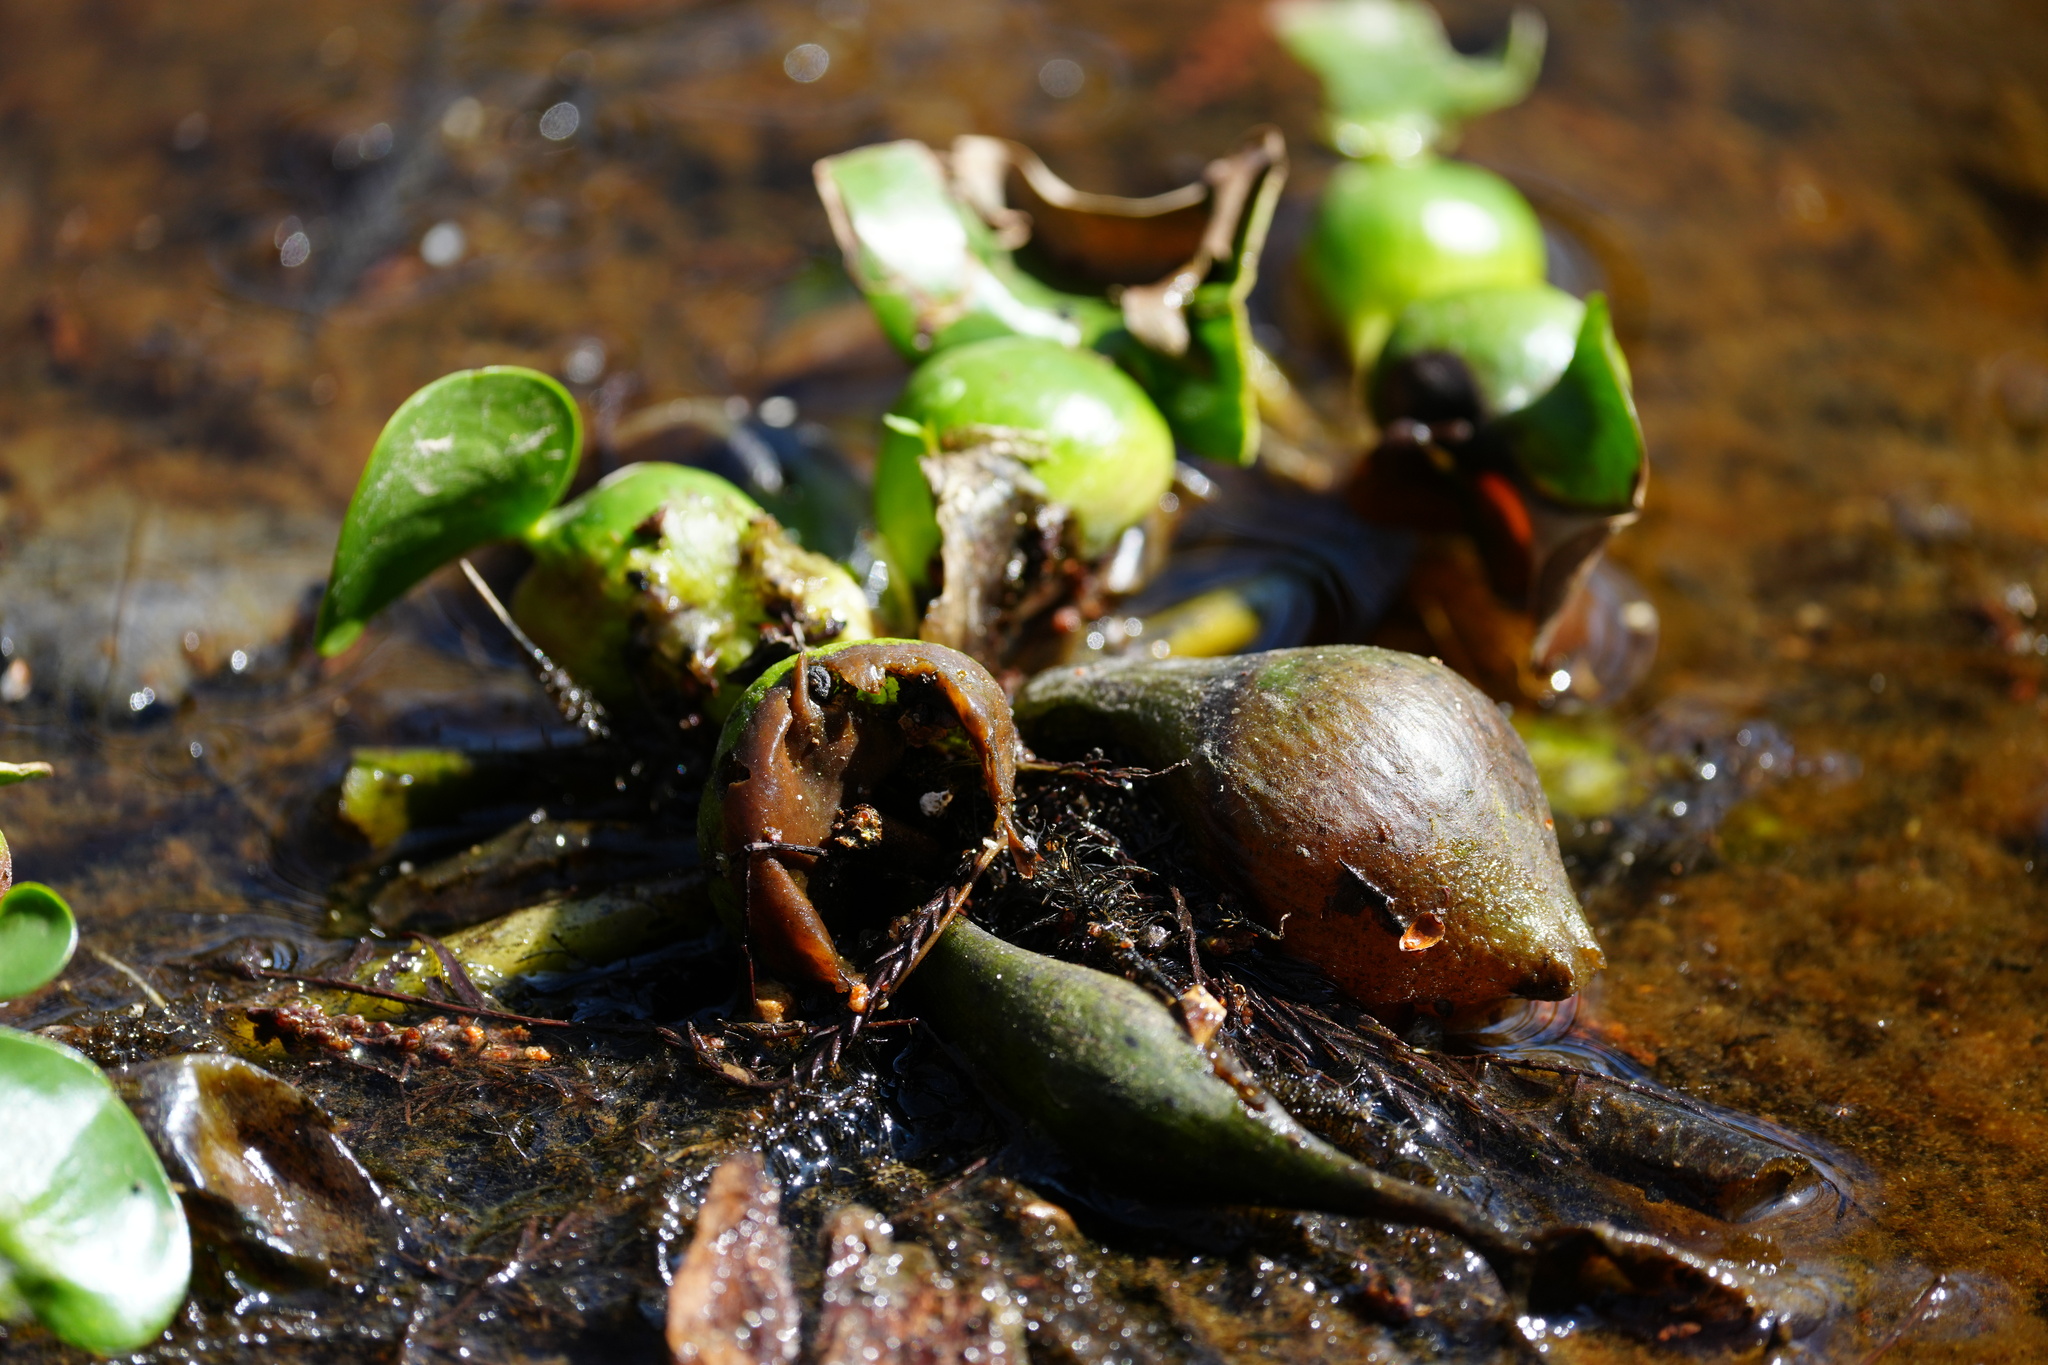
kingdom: Plantae
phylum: Tracheophyta
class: Liliopsida
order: Commelinales
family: Pontederiaceae
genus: Pontederia
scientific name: Pontederia crassipes
